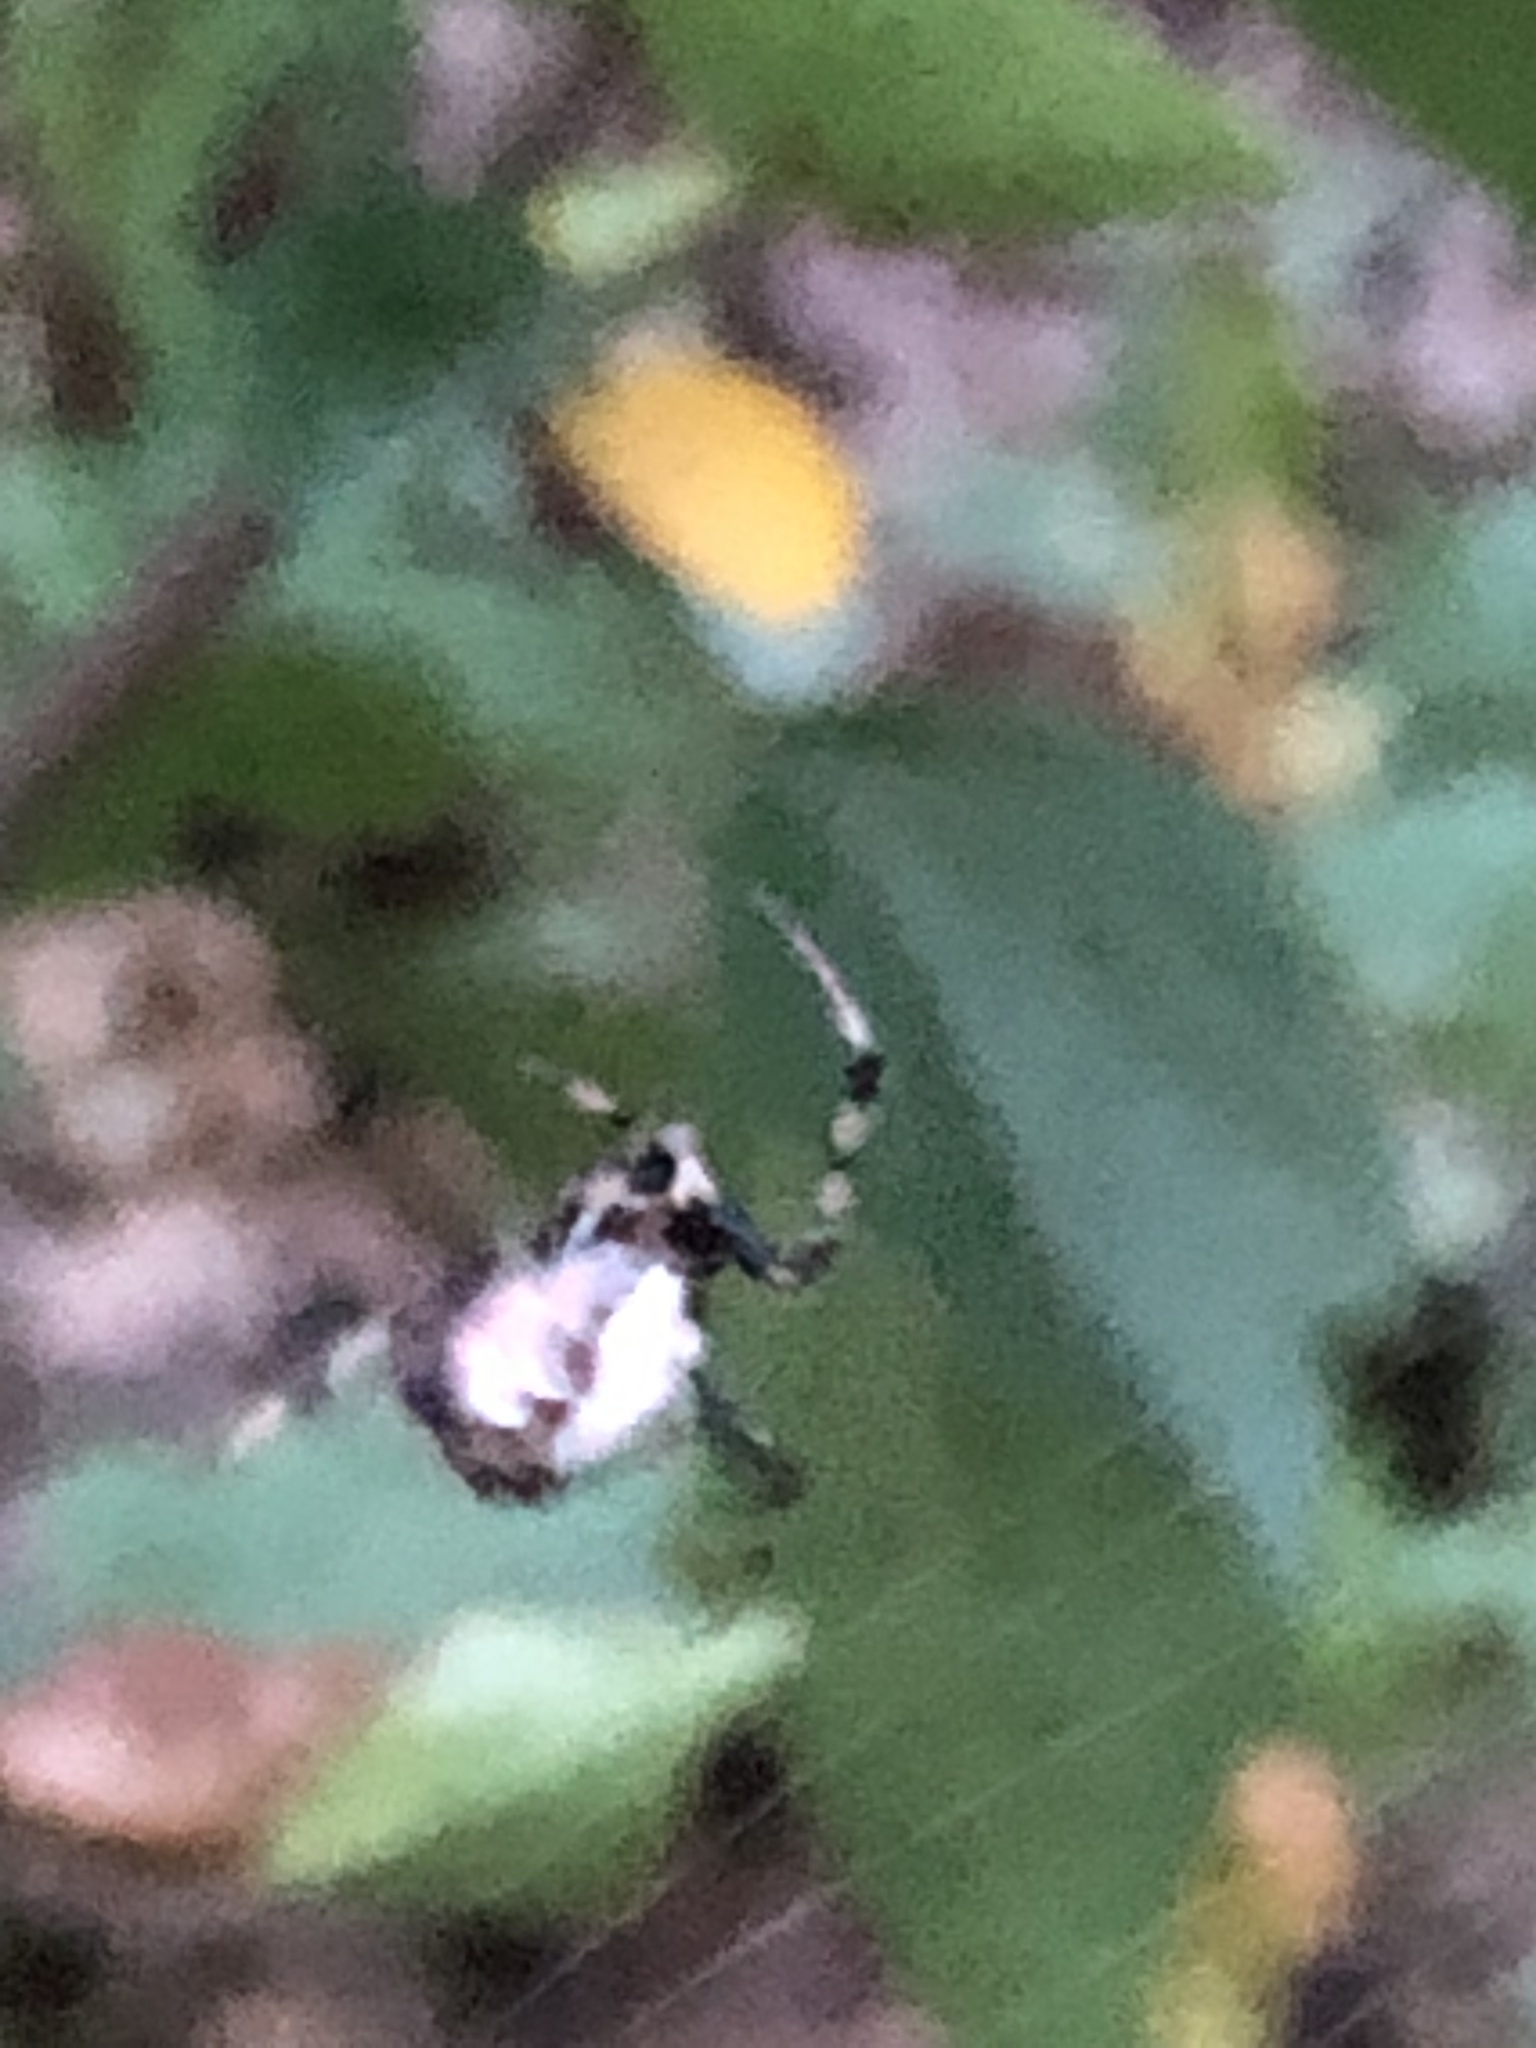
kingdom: Animalia
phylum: Arthropoda
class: Arachnida
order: Araneae
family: Araneidae
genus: Verrucosa
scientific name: Verrucosa arenata
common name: Orb weavers
